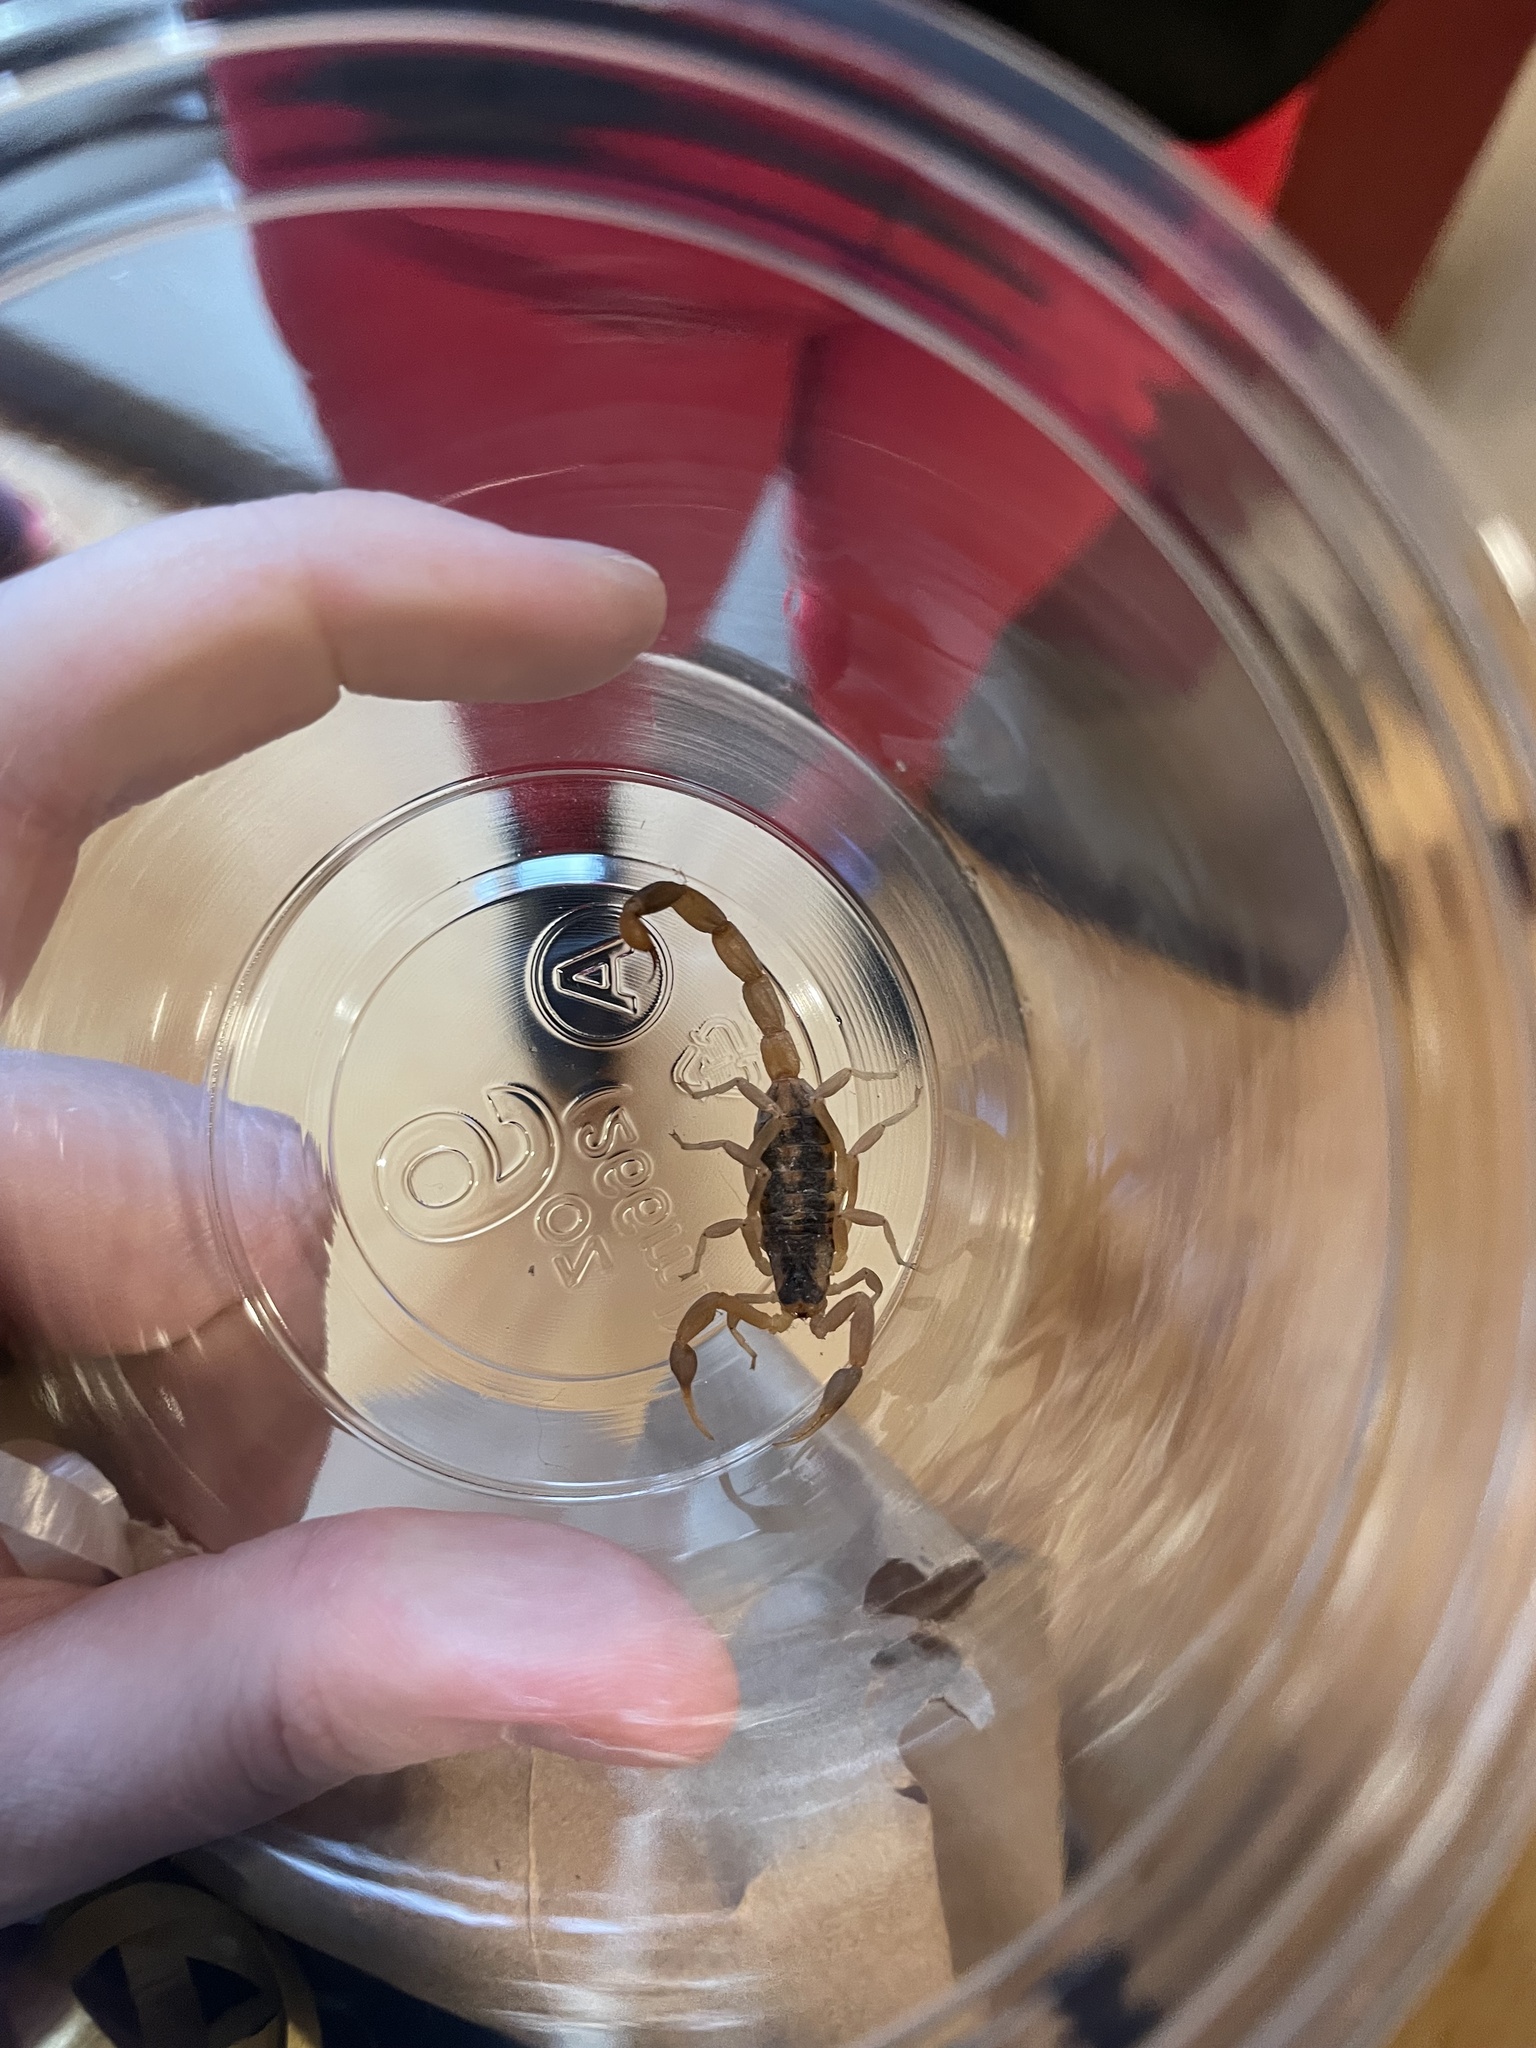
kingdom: Animalia
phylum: Arthropoda
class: Arachnida
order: Scorpiones
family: Buthidae
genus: Centruroides
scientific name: Centruroides vittatus
